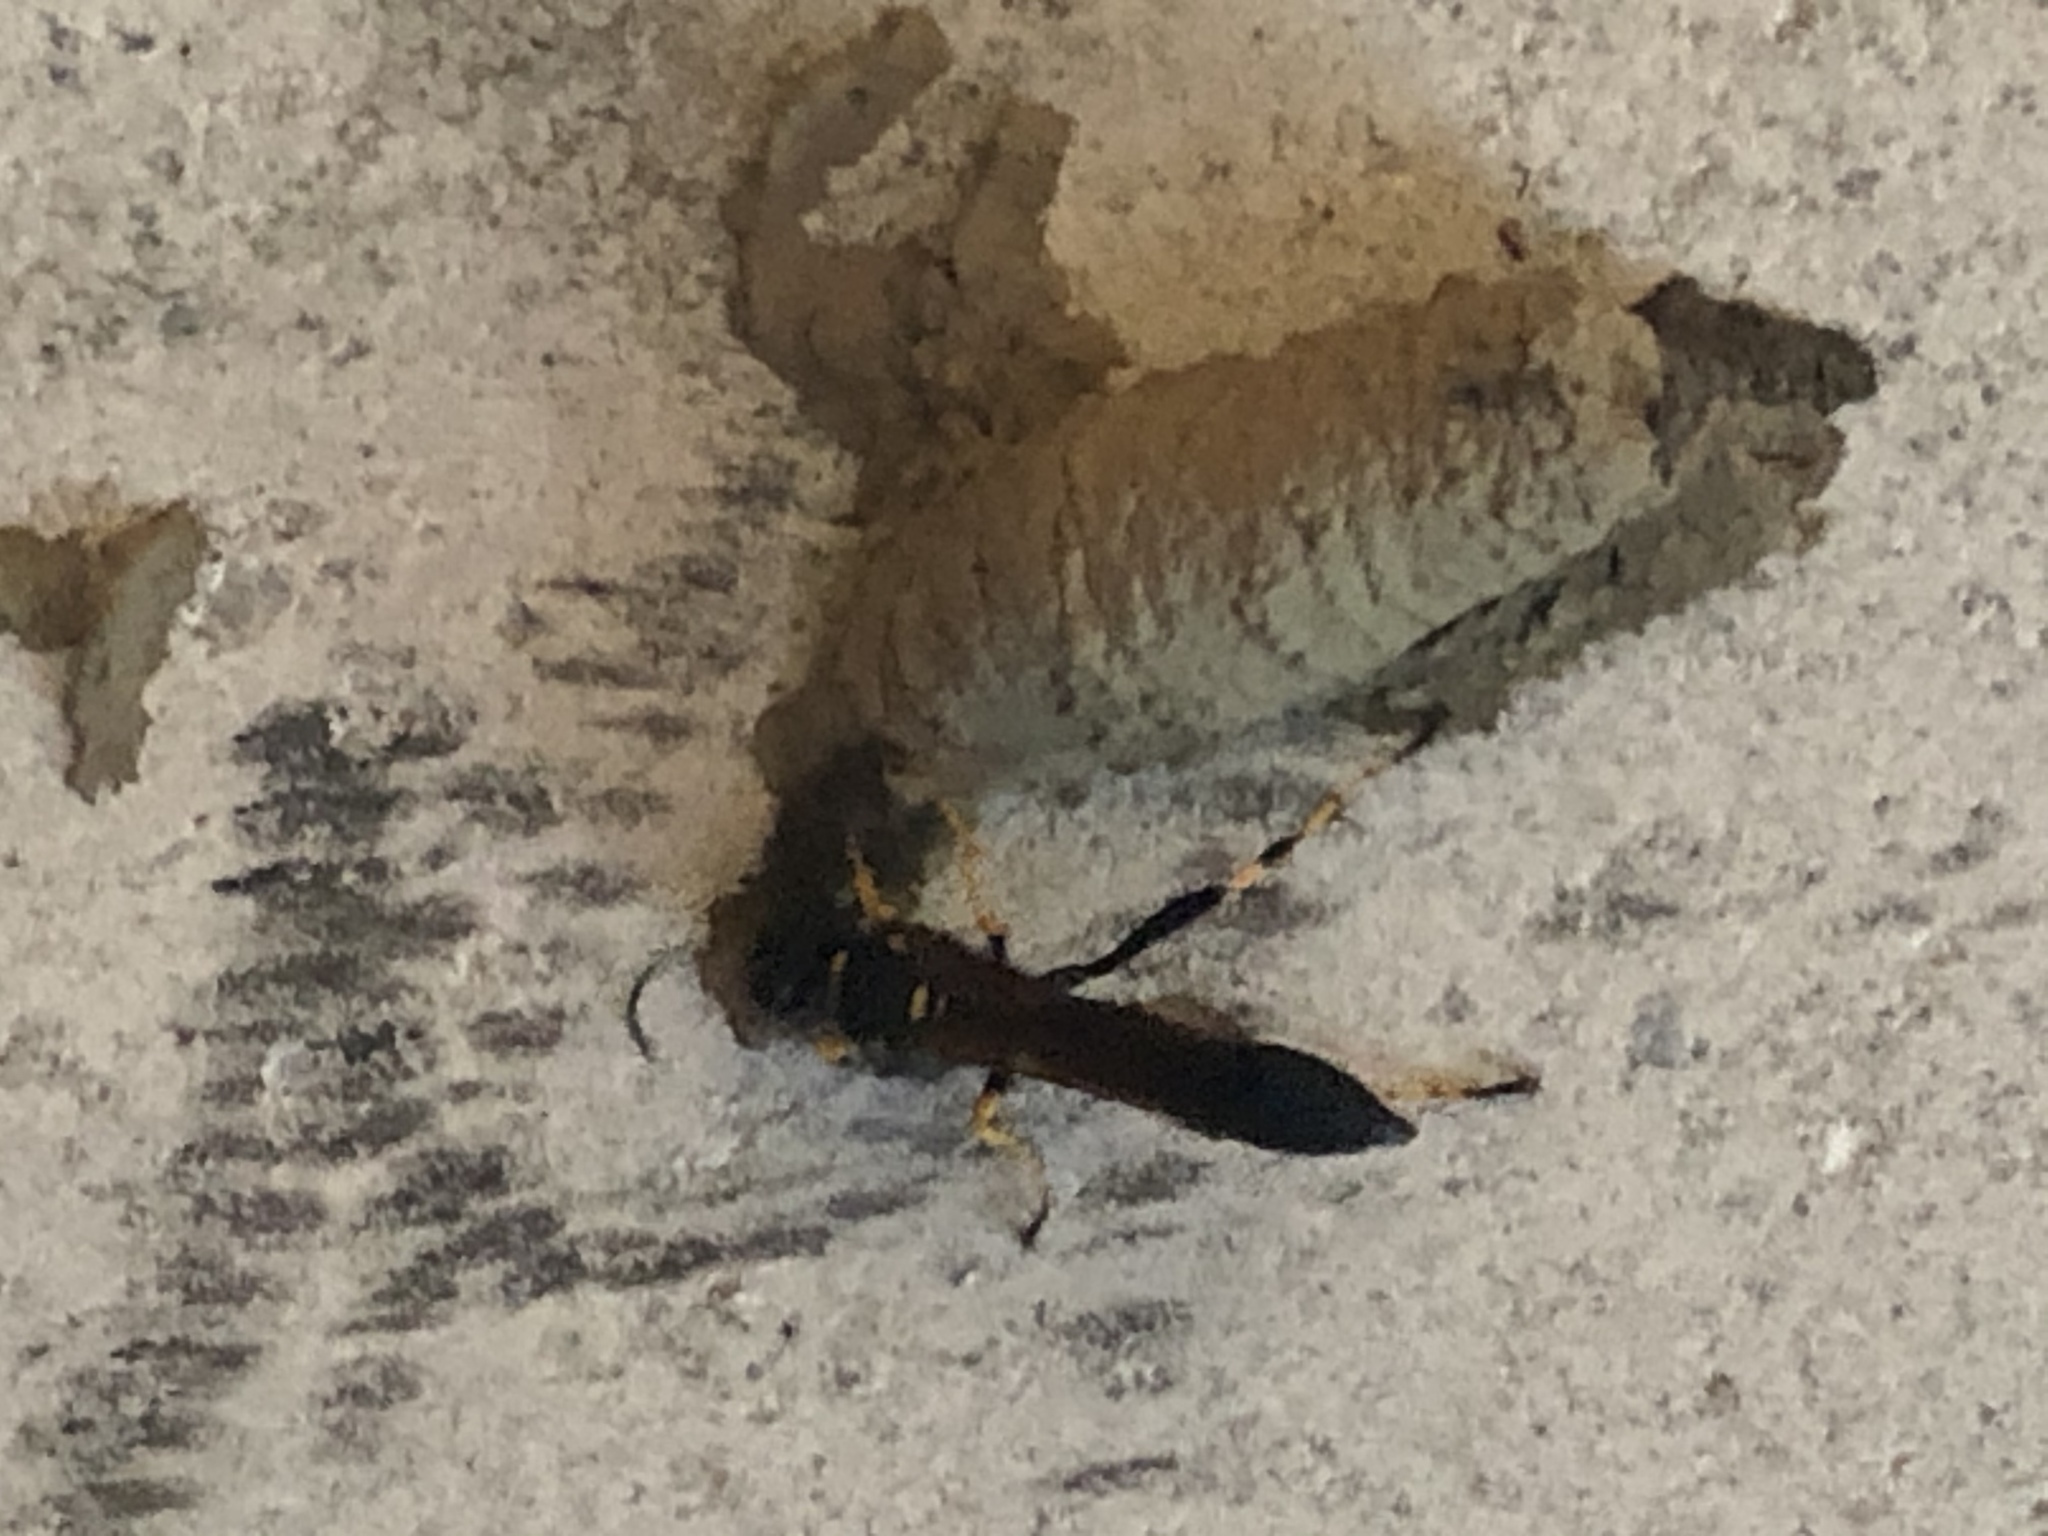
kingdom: Animalia
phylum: Arthropoda
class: Insecta
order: Hymenoptera
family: Sphecidae
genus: Sceliphron
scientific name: Sceliphron caementarium
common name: Mud dauber
